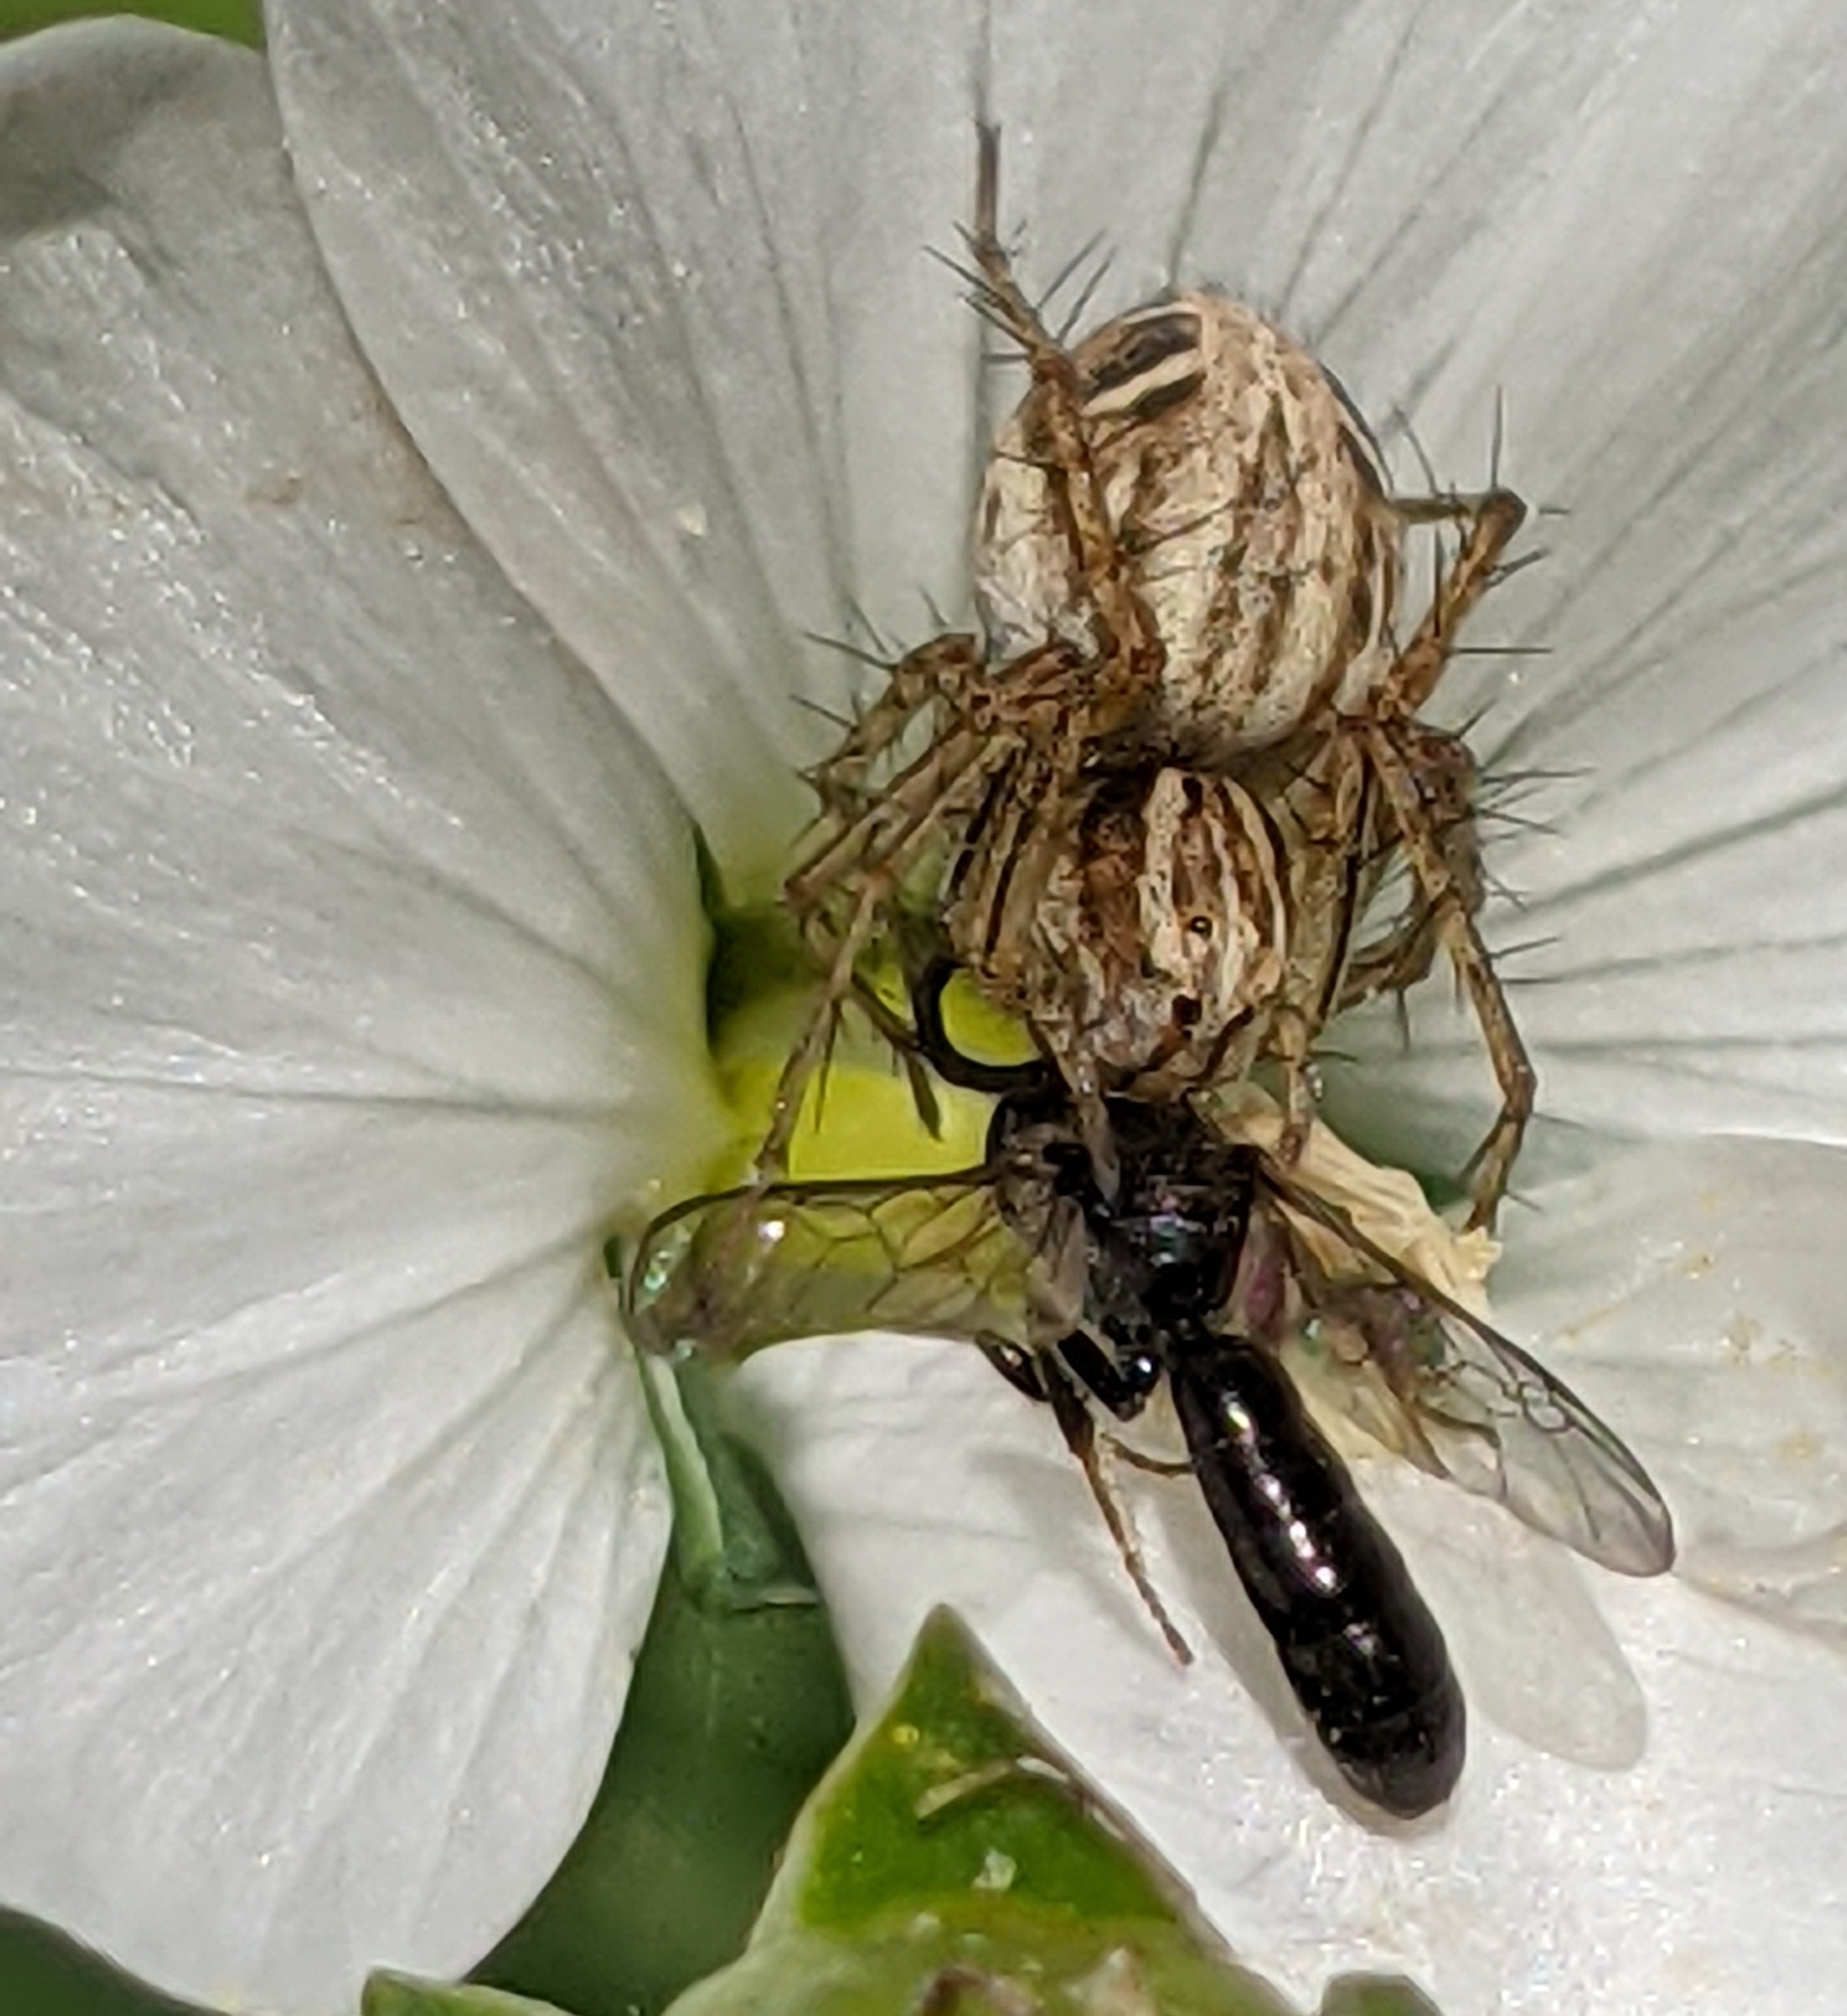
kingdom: Animalia
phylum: Arthropoda
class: Arachnida
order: Araneae
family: Oxyopidae
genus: Oxyopes
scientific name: Oxyopes gracilipes
